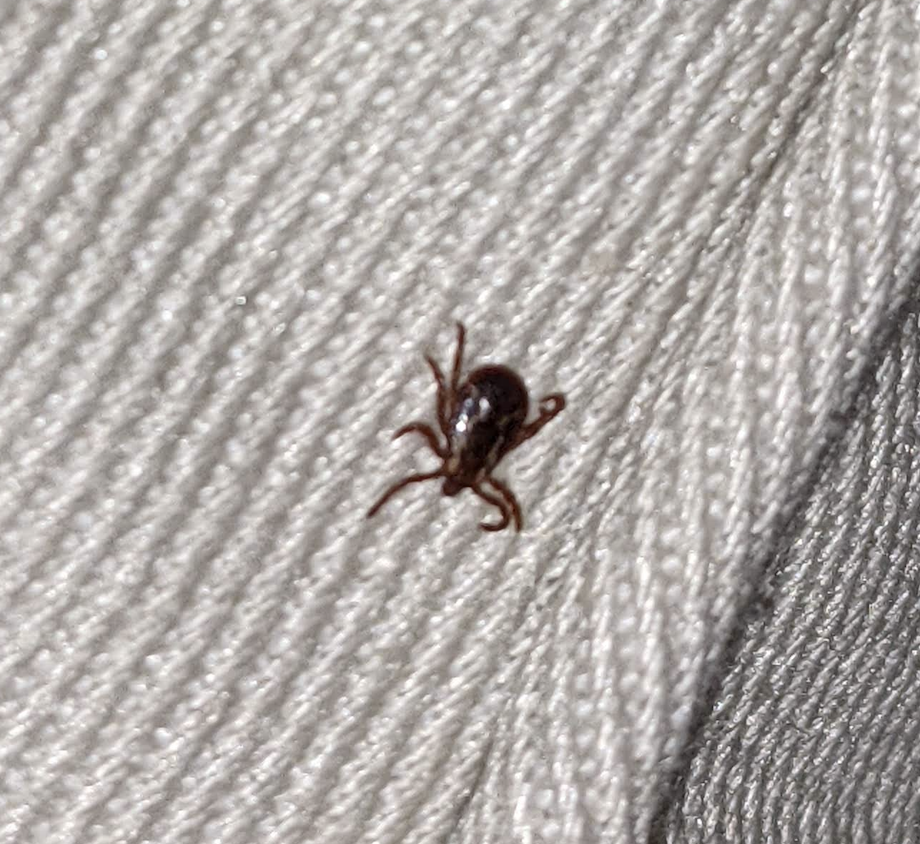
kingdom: Animalia
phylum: Arthropoda
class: Arachnida
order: Ixodida
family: Ixodidae
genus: Dermacentor
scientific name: Dermacentor variabilis
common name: American dog tick
